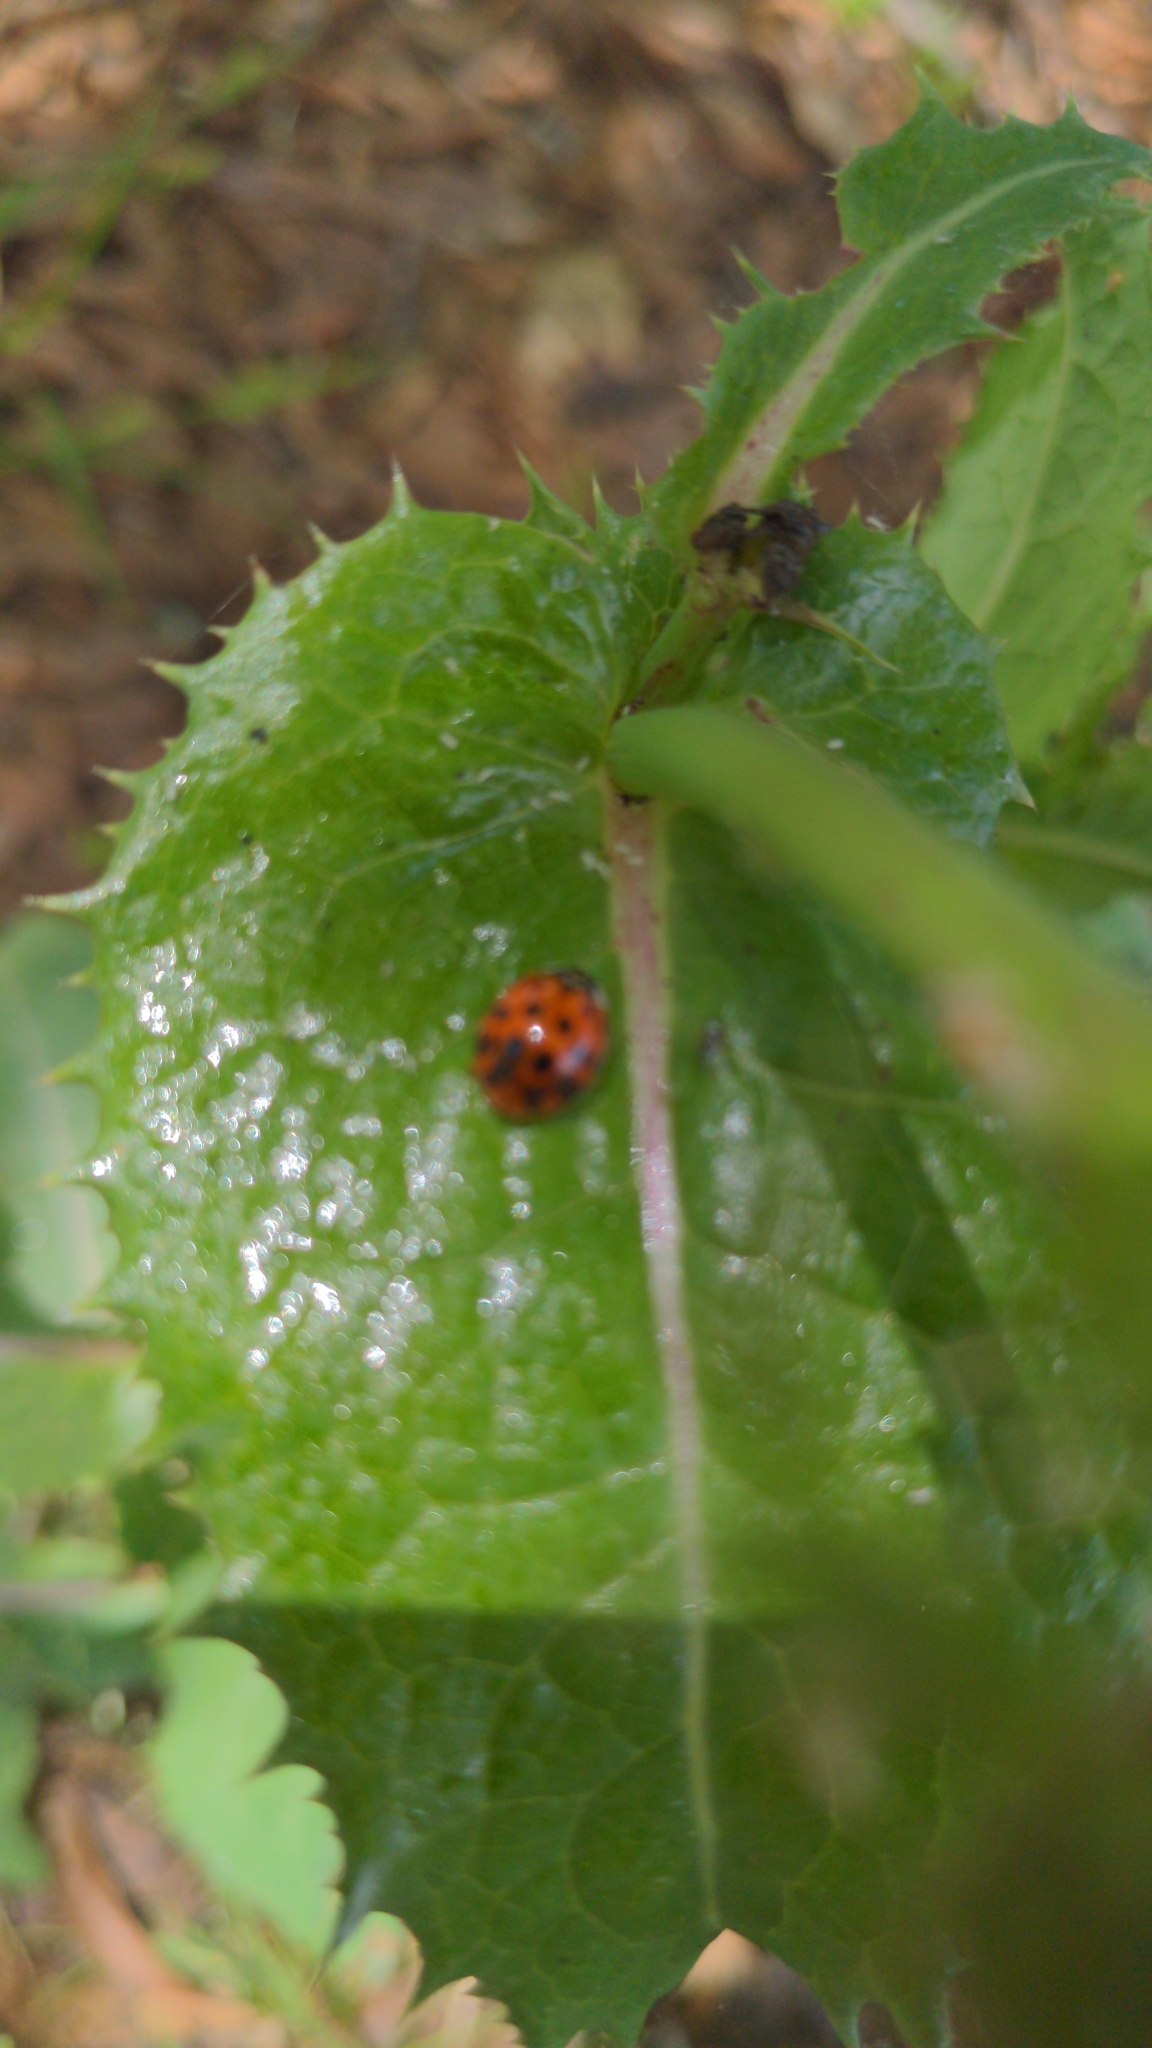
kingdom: Animalia
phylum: Arthropoda
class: Insecta
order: Coleoptera
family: Coccinellidae
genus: Harmonia
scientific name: Harmonia axyridis
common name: Harlequin ladybird
